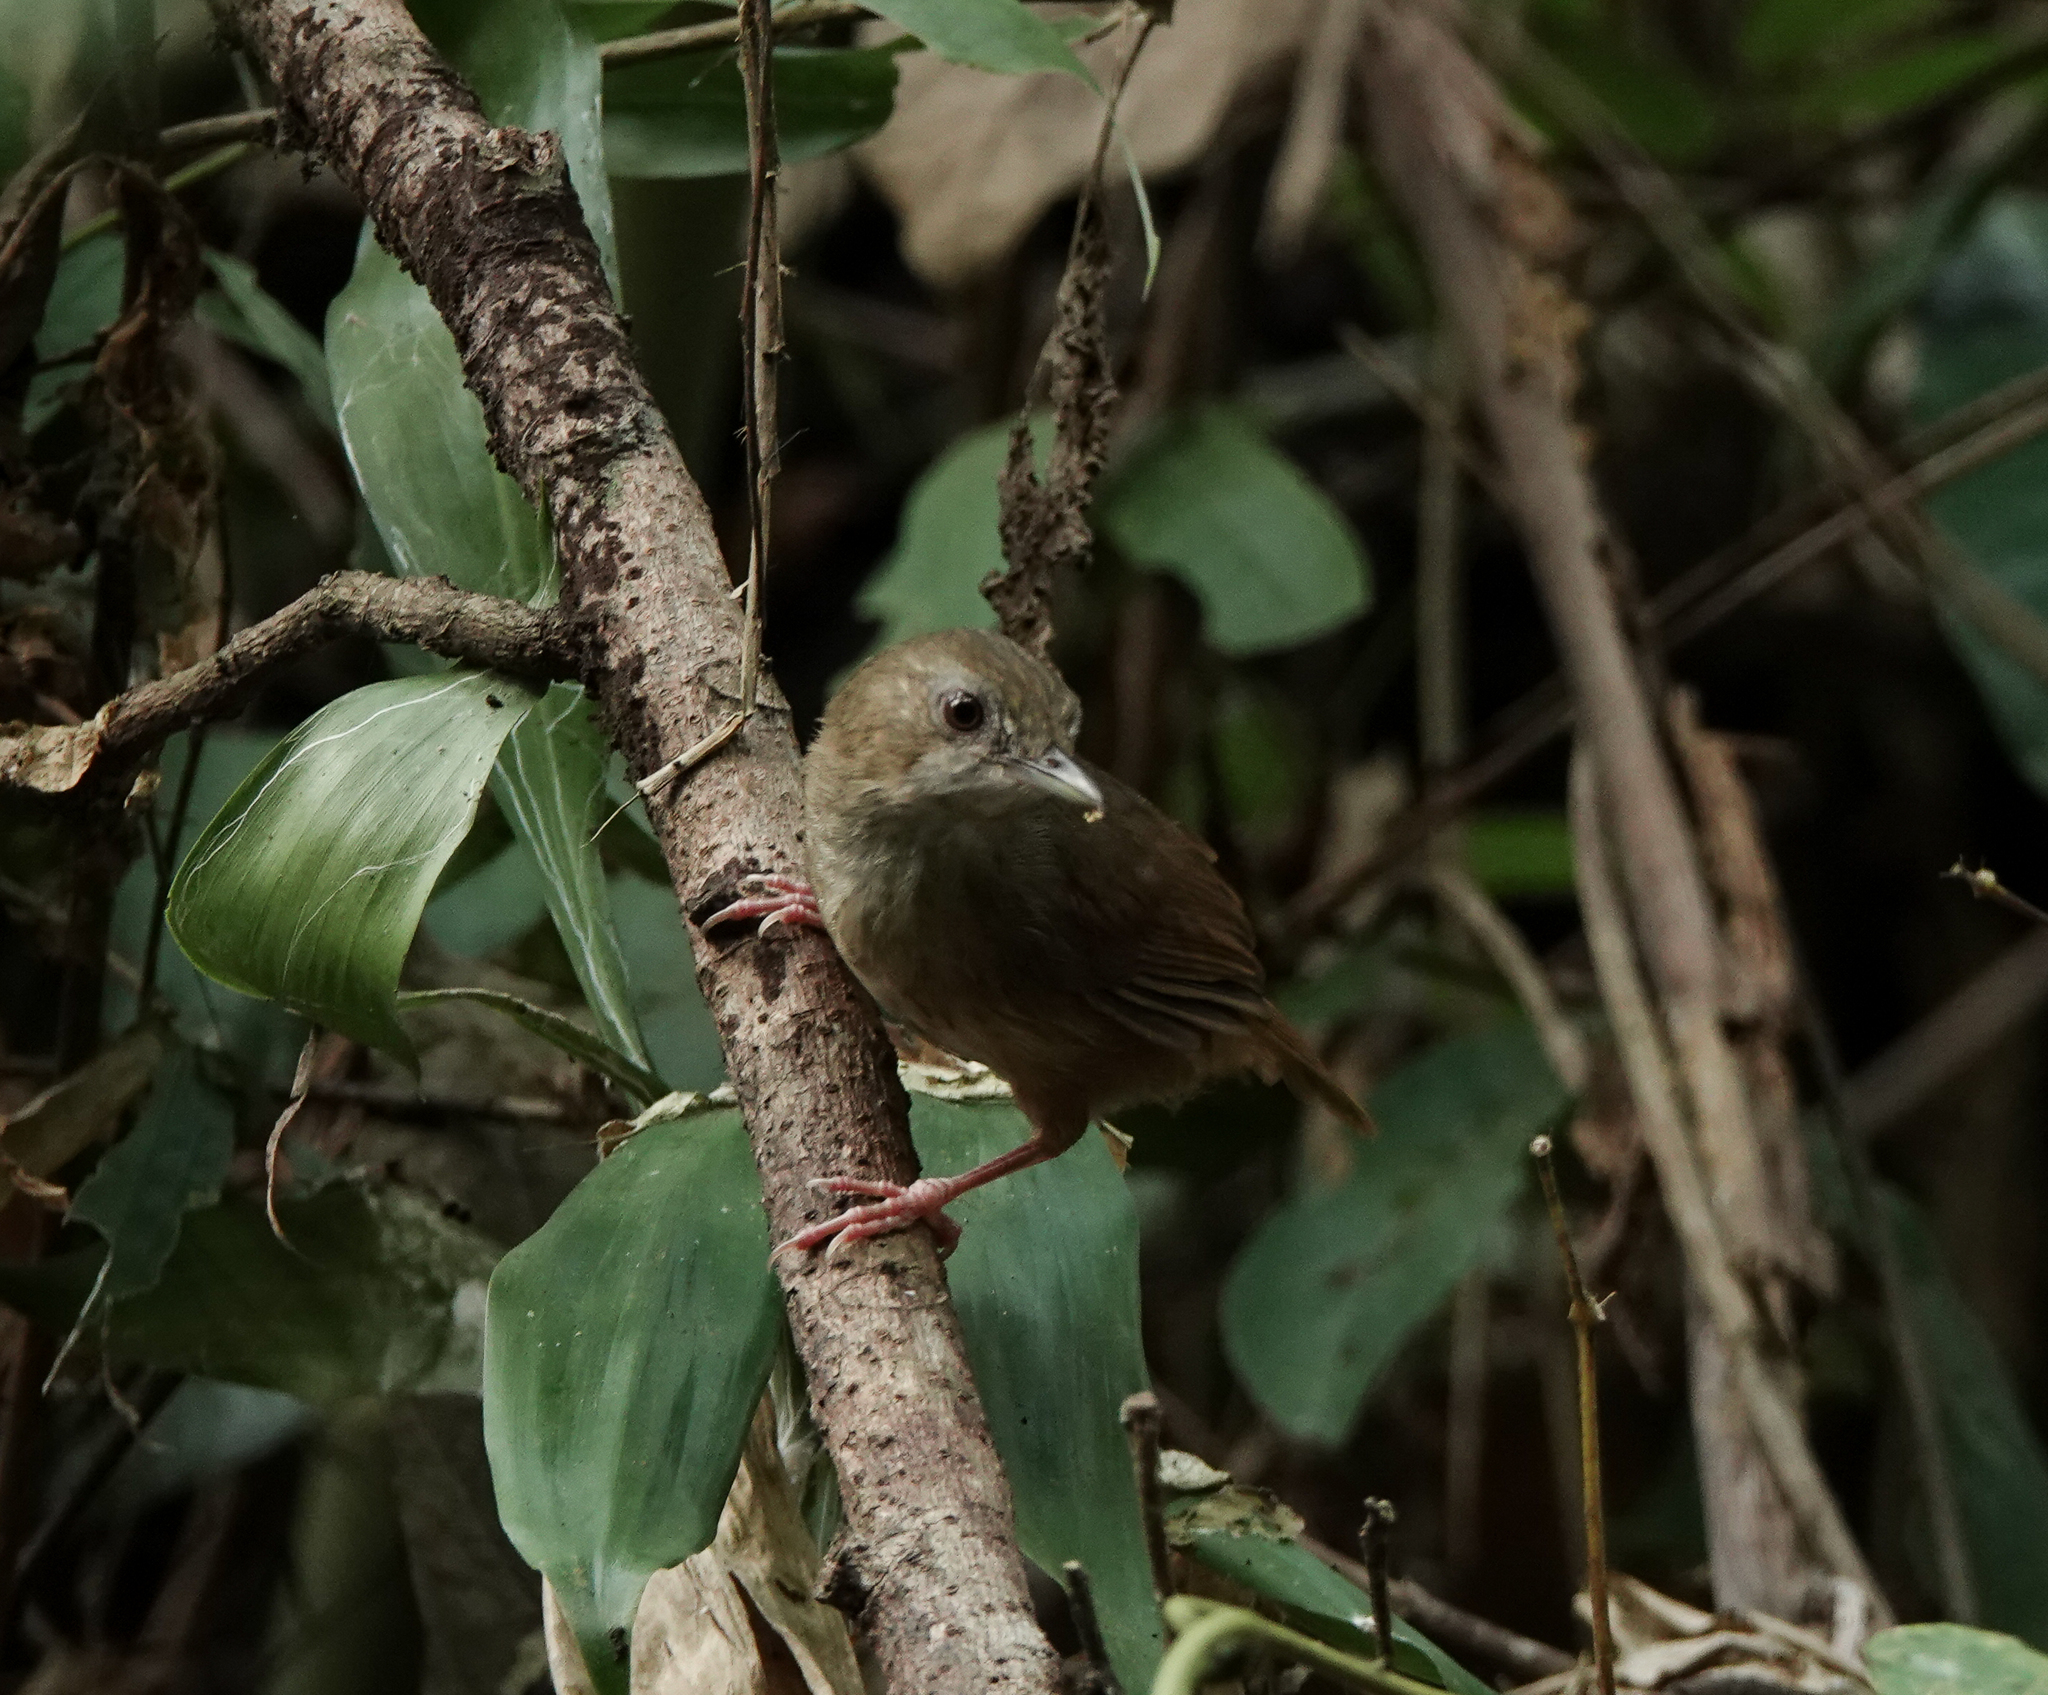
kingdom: Animalia
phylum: Chordata
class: Aves
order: Passeriformes
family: Pellorneidae
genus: Malacocincla
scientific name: Malacocincla abbotti
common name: Abbott's babbler
